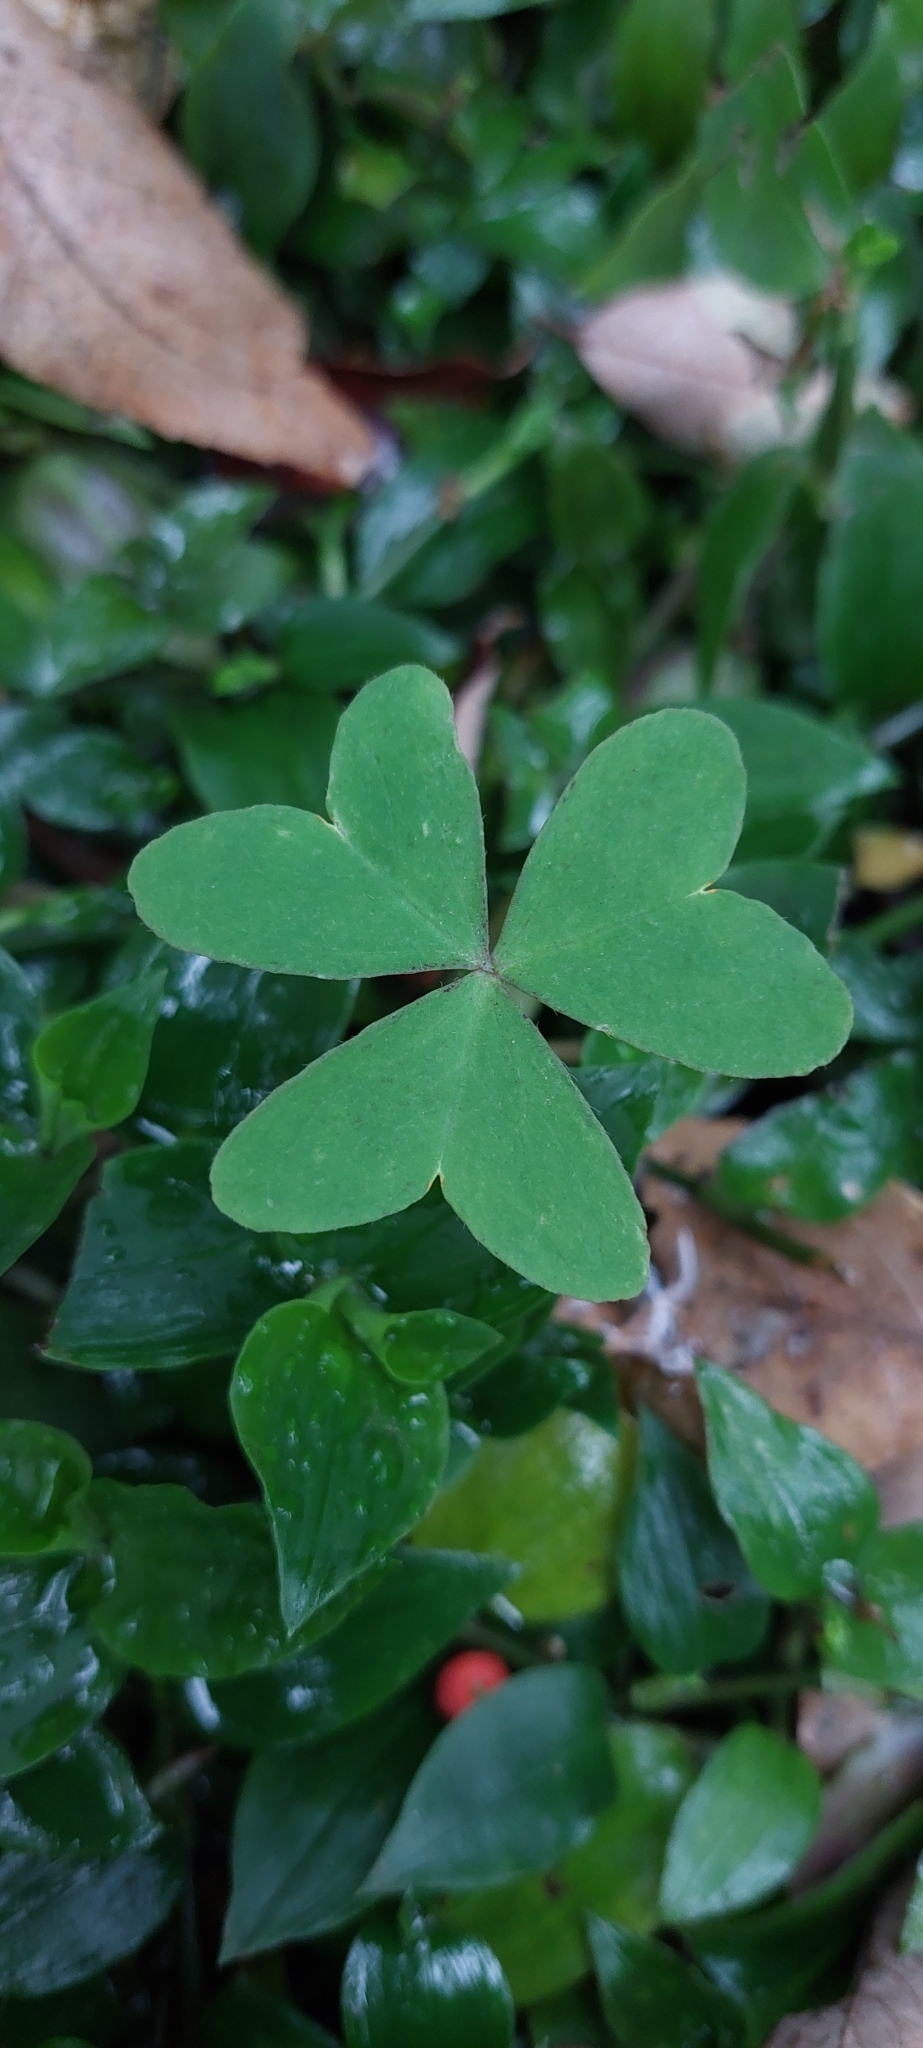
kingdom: Plantae
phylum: Tracheophyta
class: Magnoliopsida
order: Oxalidales
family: Oxalidaceae
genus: Oxalis
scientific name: Oxalis latifolia
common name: Garden pink-sorrel
